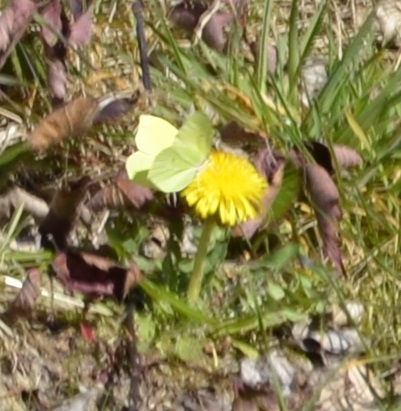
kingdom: Animalia
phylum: Arthropoda
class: Insecta
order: Lepidoptera
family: Pieridae
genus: Gonepteryx
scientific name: Gonepteryx rhamni
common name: Brimstone
